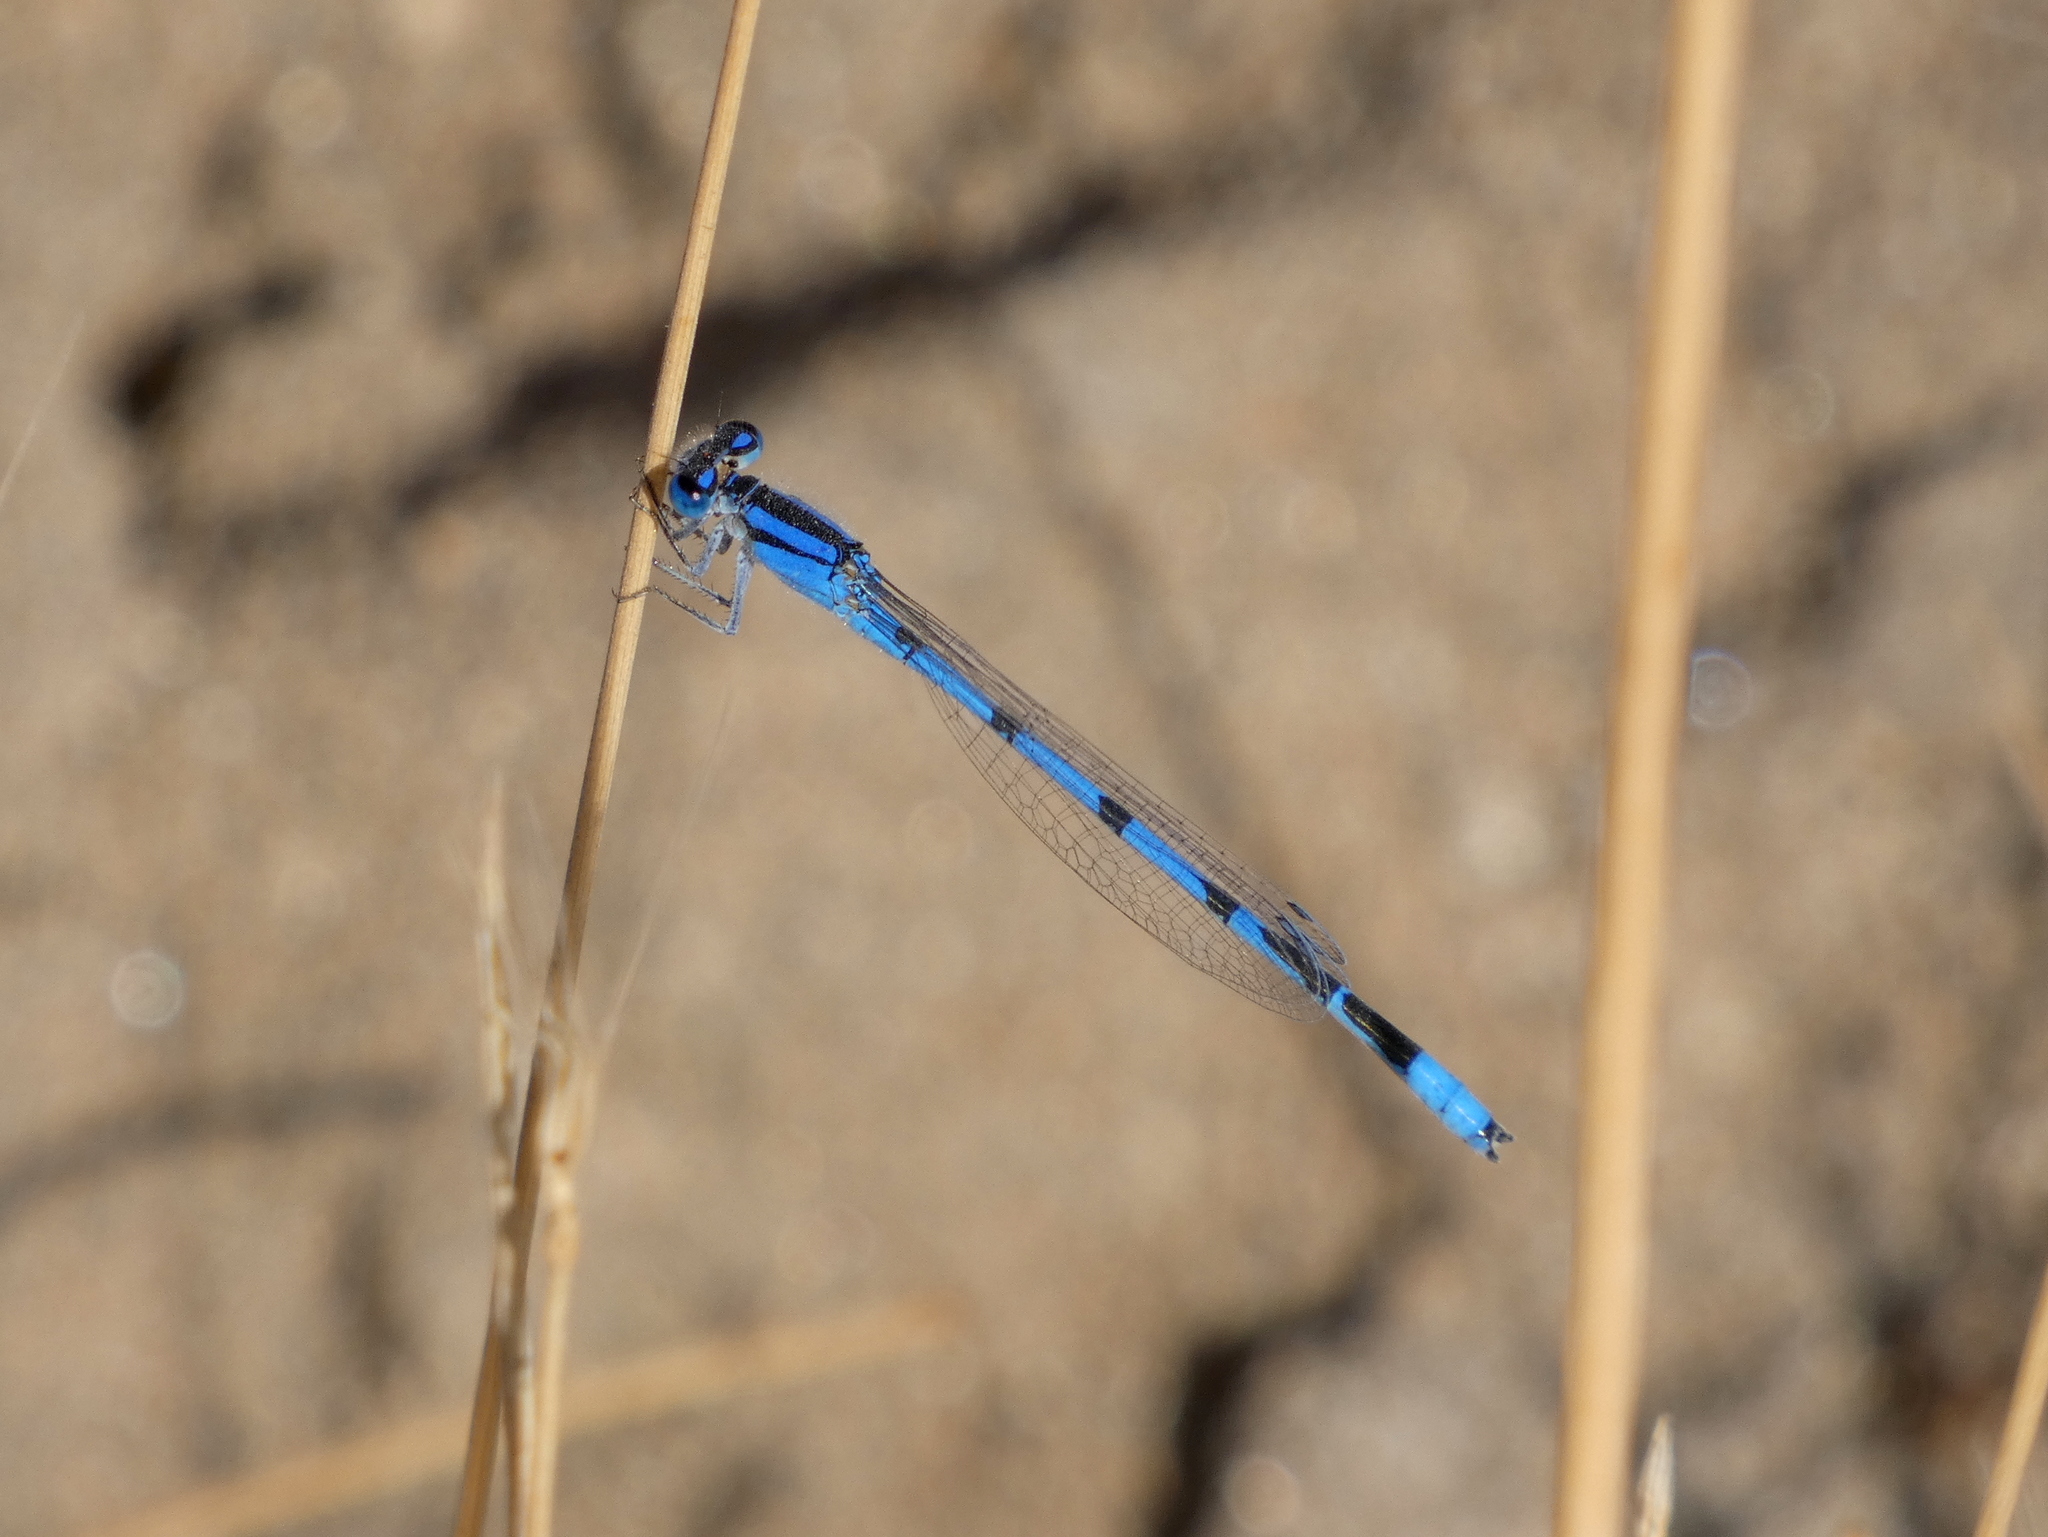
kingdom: Animalia
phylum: Arthropoda
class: Insecta
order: Odonata
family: Coenagrionidae
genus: Enallagma
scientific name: Enallagma civile
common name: Damselfly
